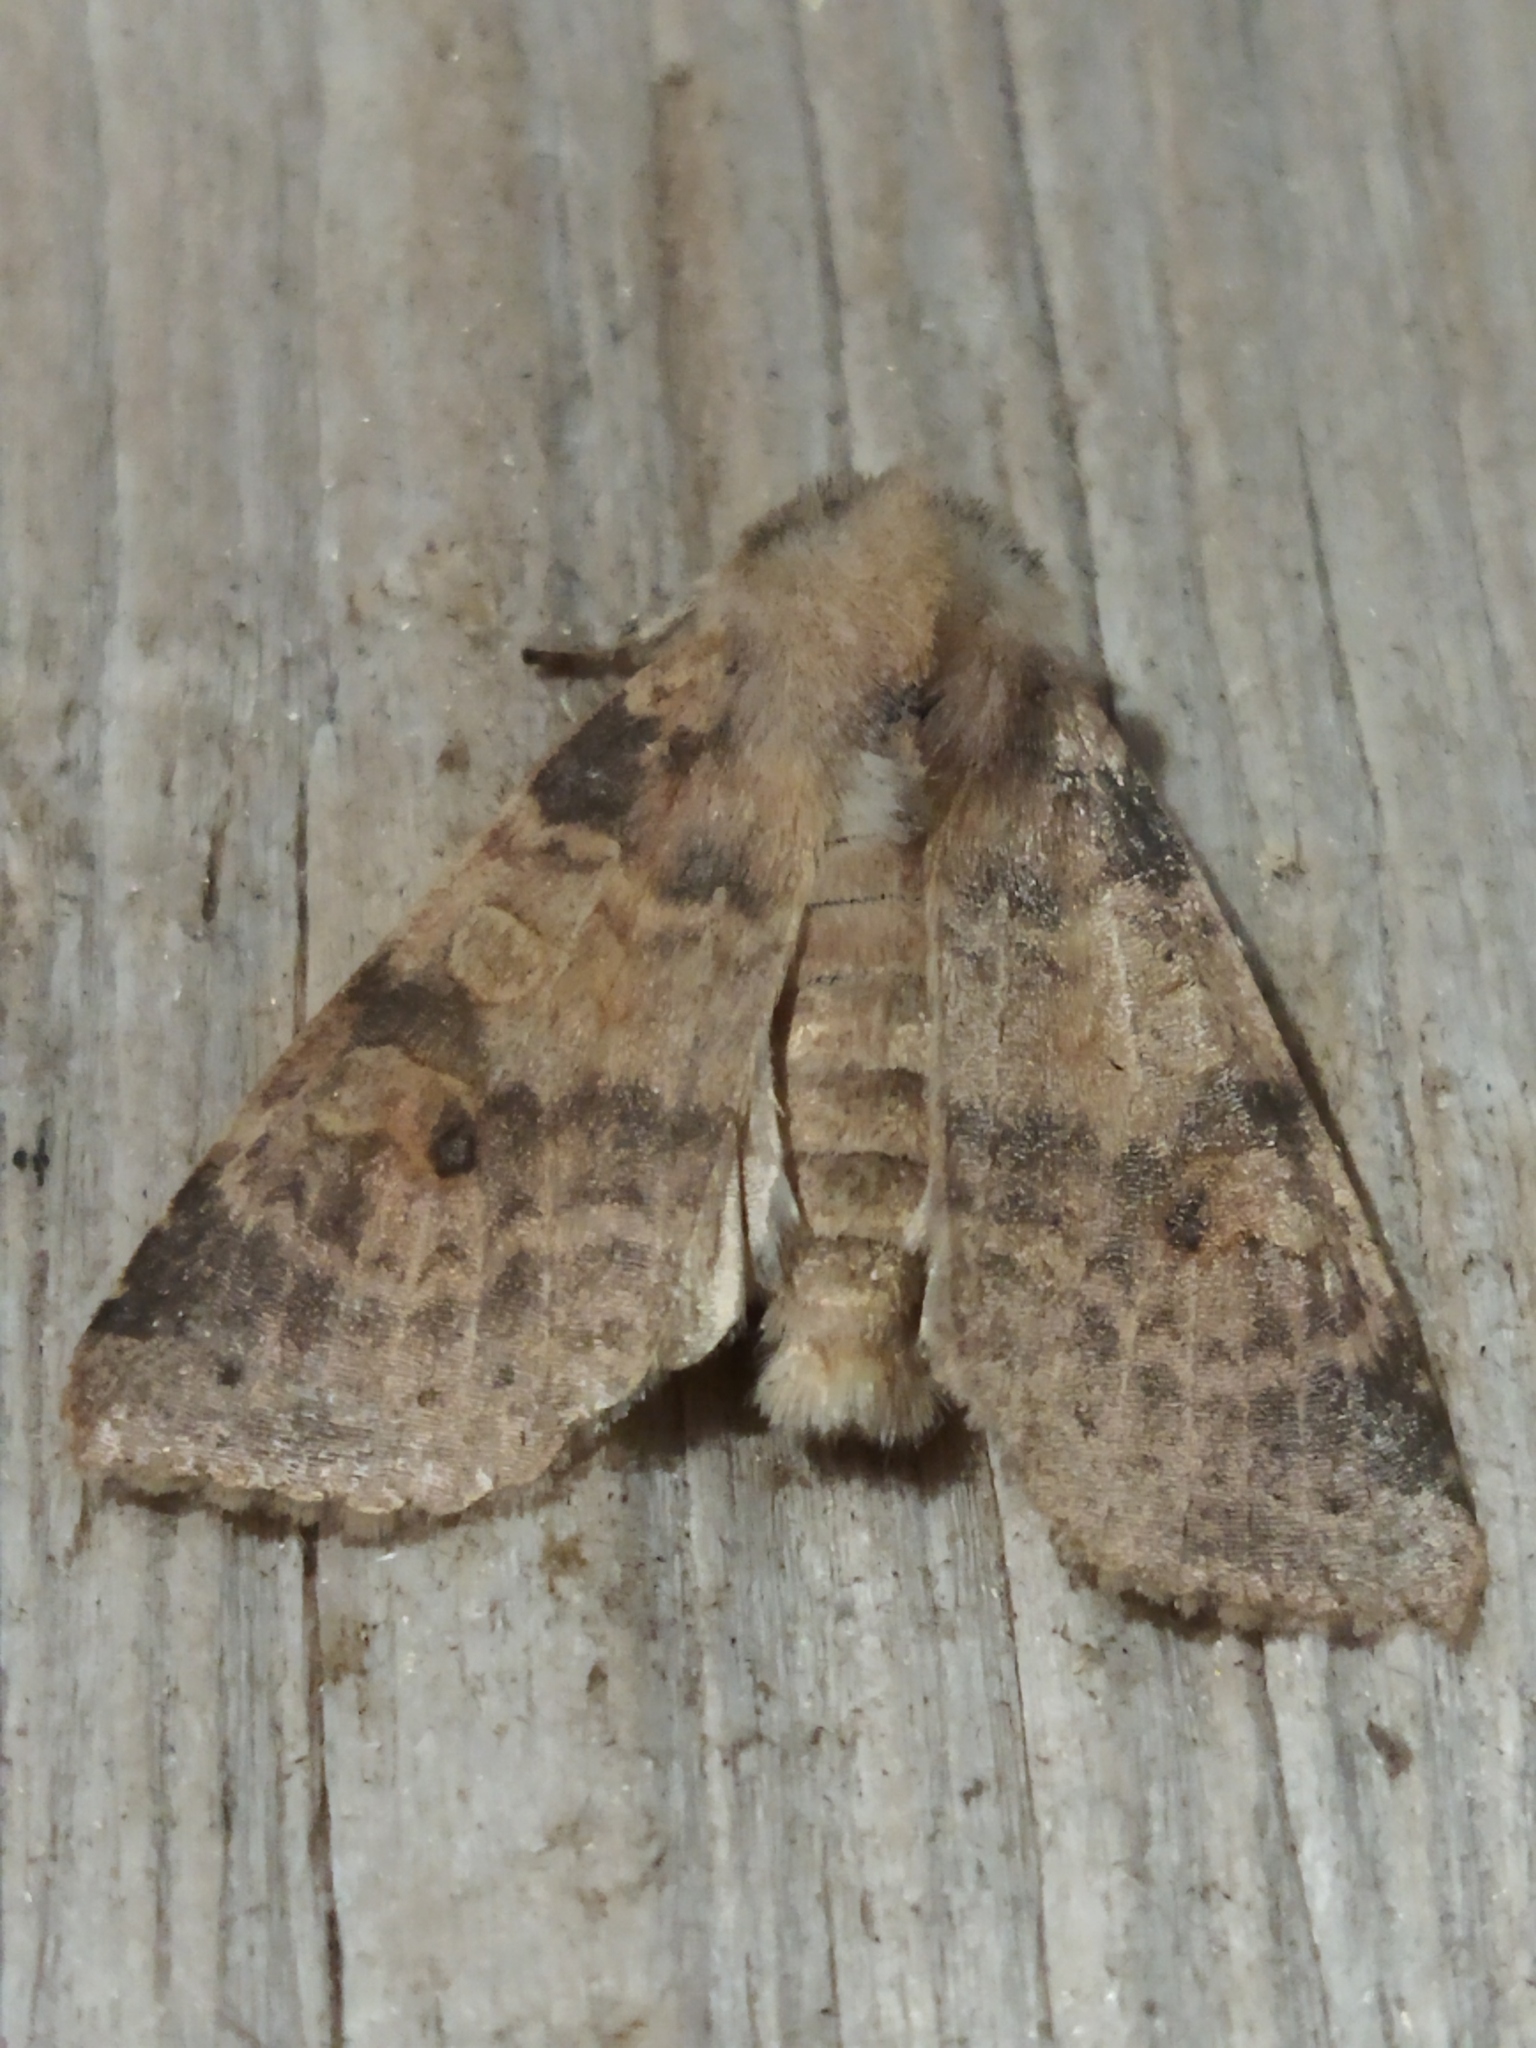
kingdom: Animalia
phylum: Arthropoda
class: Insecta
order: Lepidoptera
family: Noctuidae
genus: Xanthia
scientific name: Xanthia ocellaris
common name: Pale-lemon sallow
